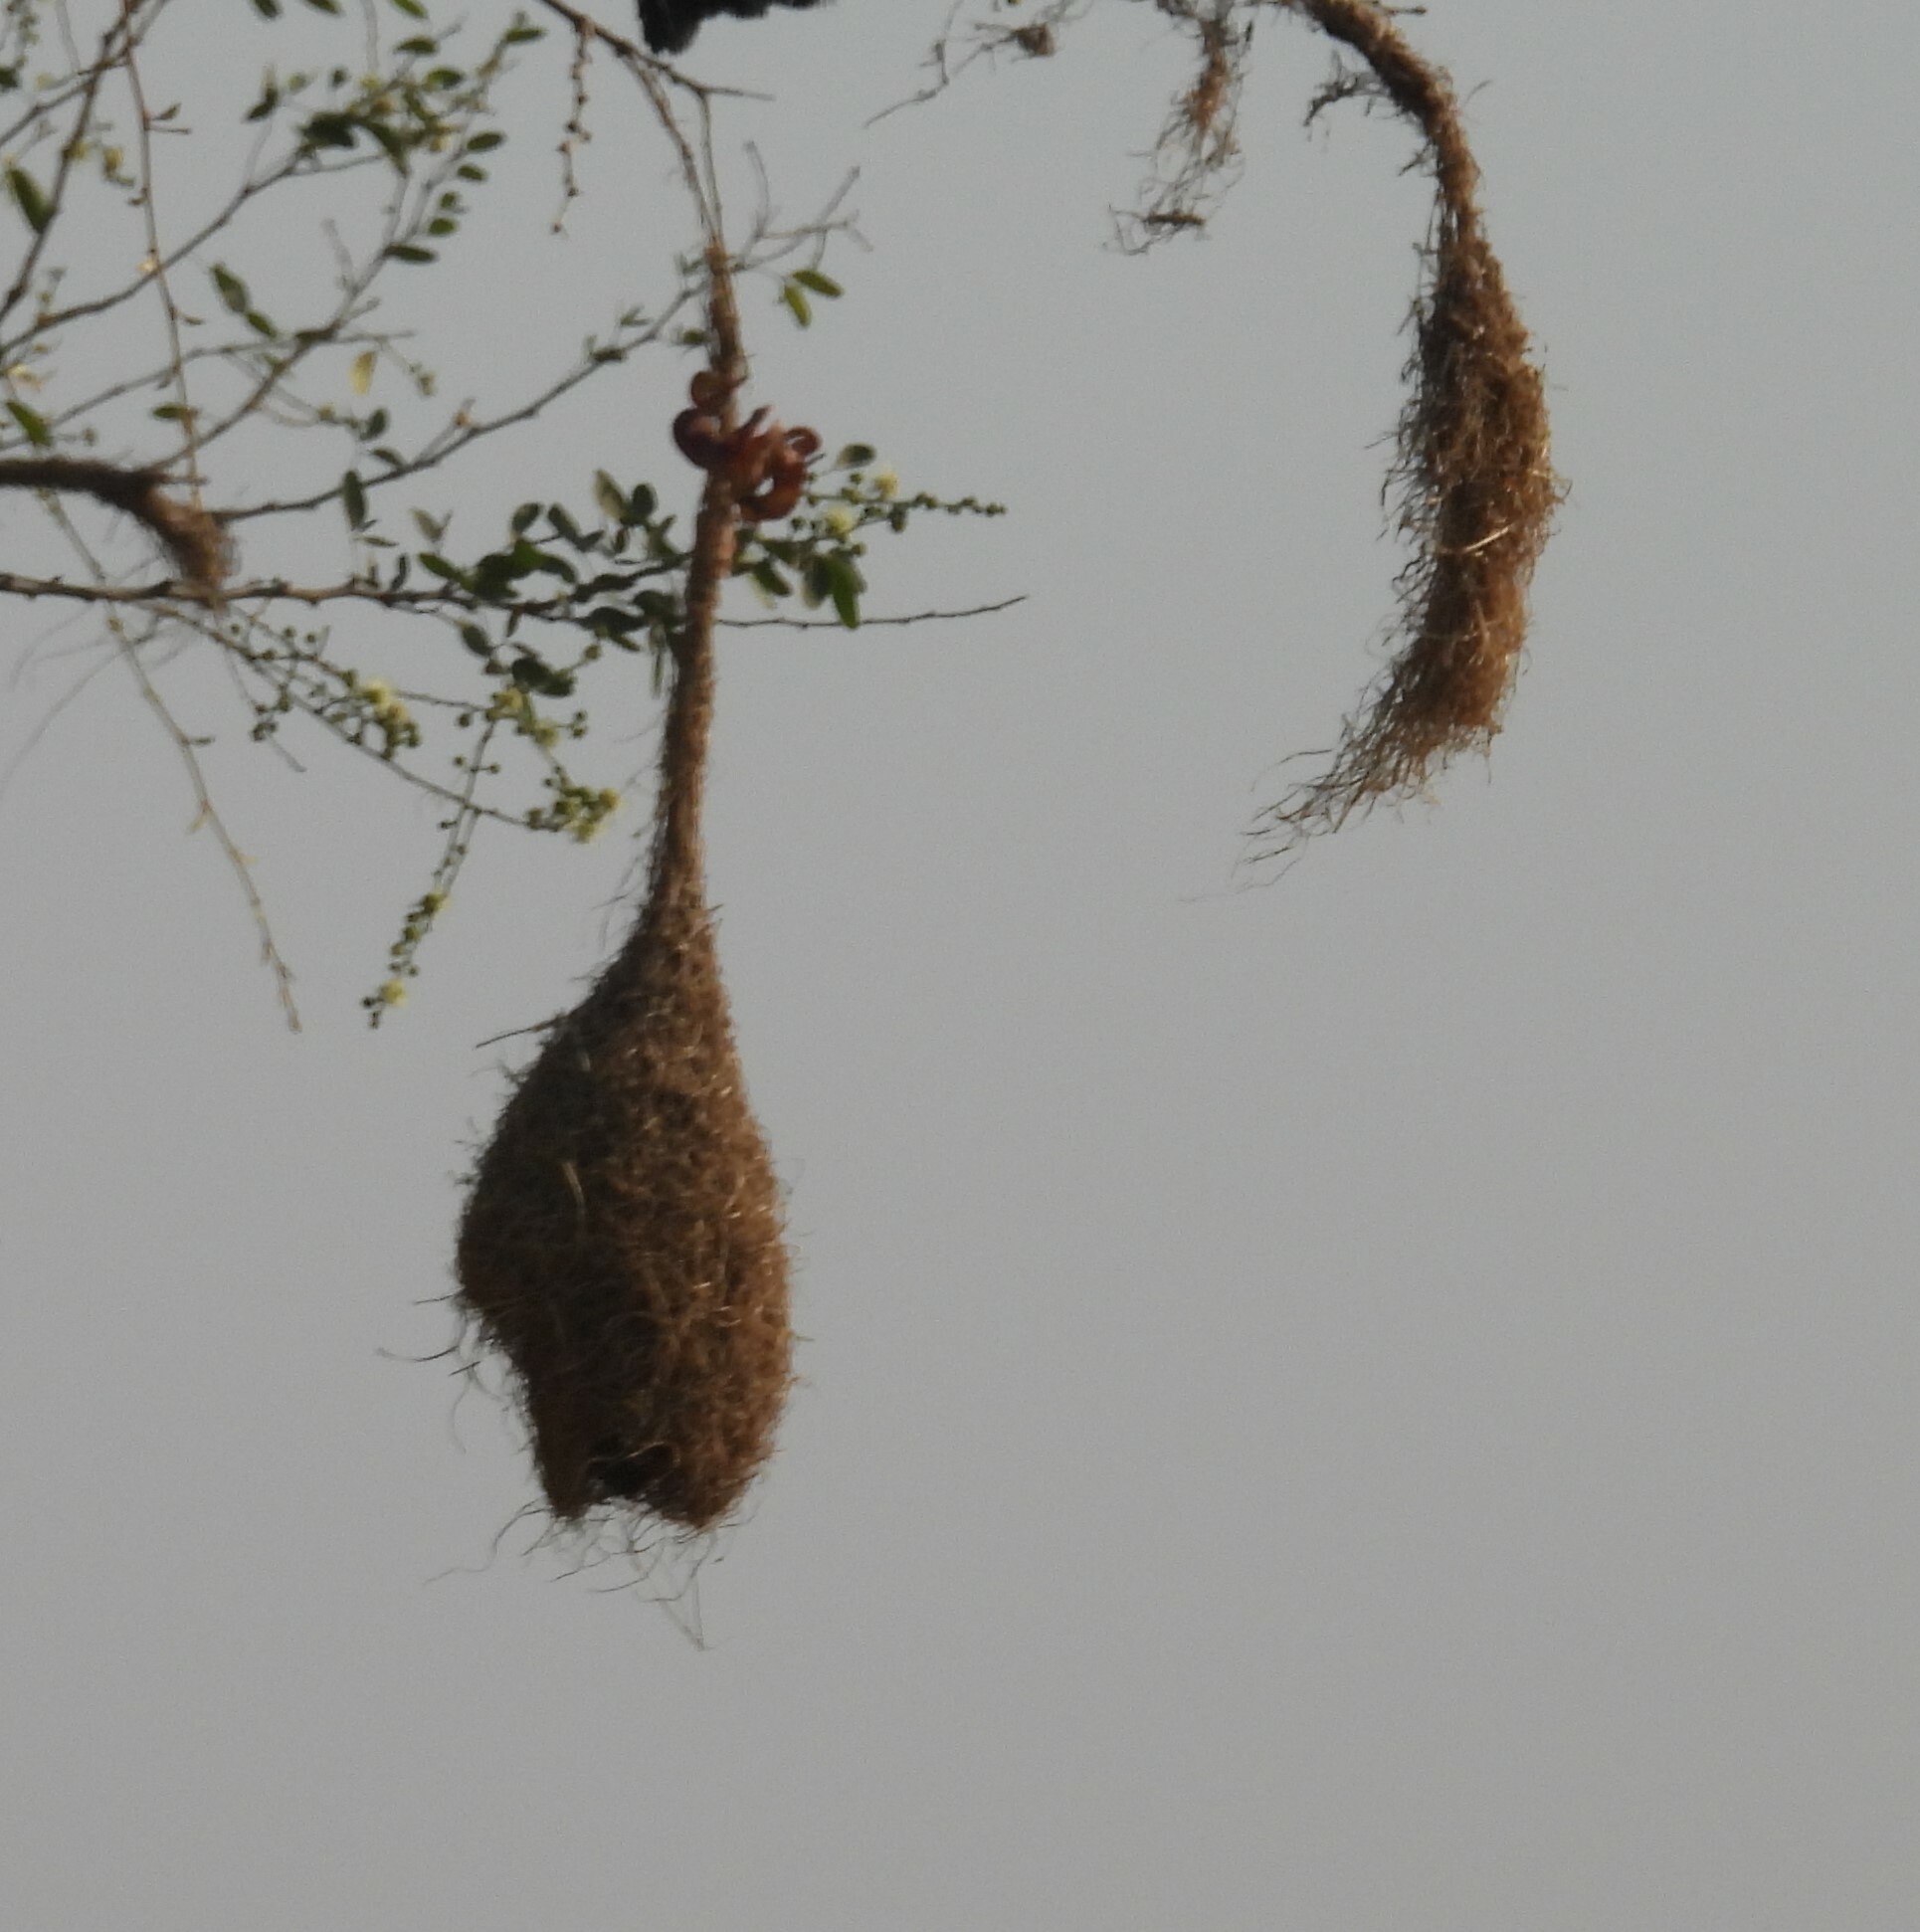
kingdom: Animalia
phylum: Chordata
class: Aves
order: Passeriformes
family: Ploceidae
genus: Ploceus
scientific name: Ploceus philippinus
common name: Baya weaver
